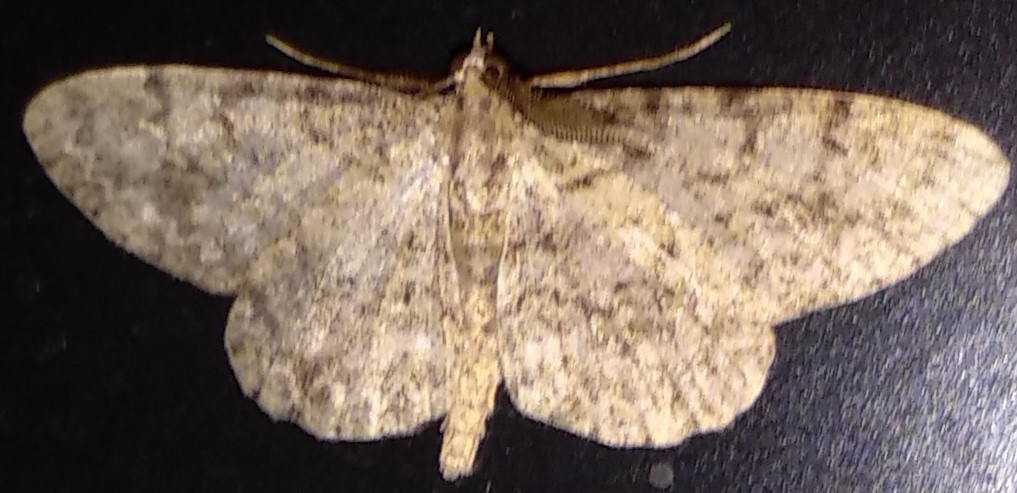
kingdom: Animalia
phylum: Arthropoda
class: Insecta
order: Lepidoptera
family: Geometridae
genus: Protoboarmia
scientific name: Protoboarmia porcelaria
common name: Porcelain gray
